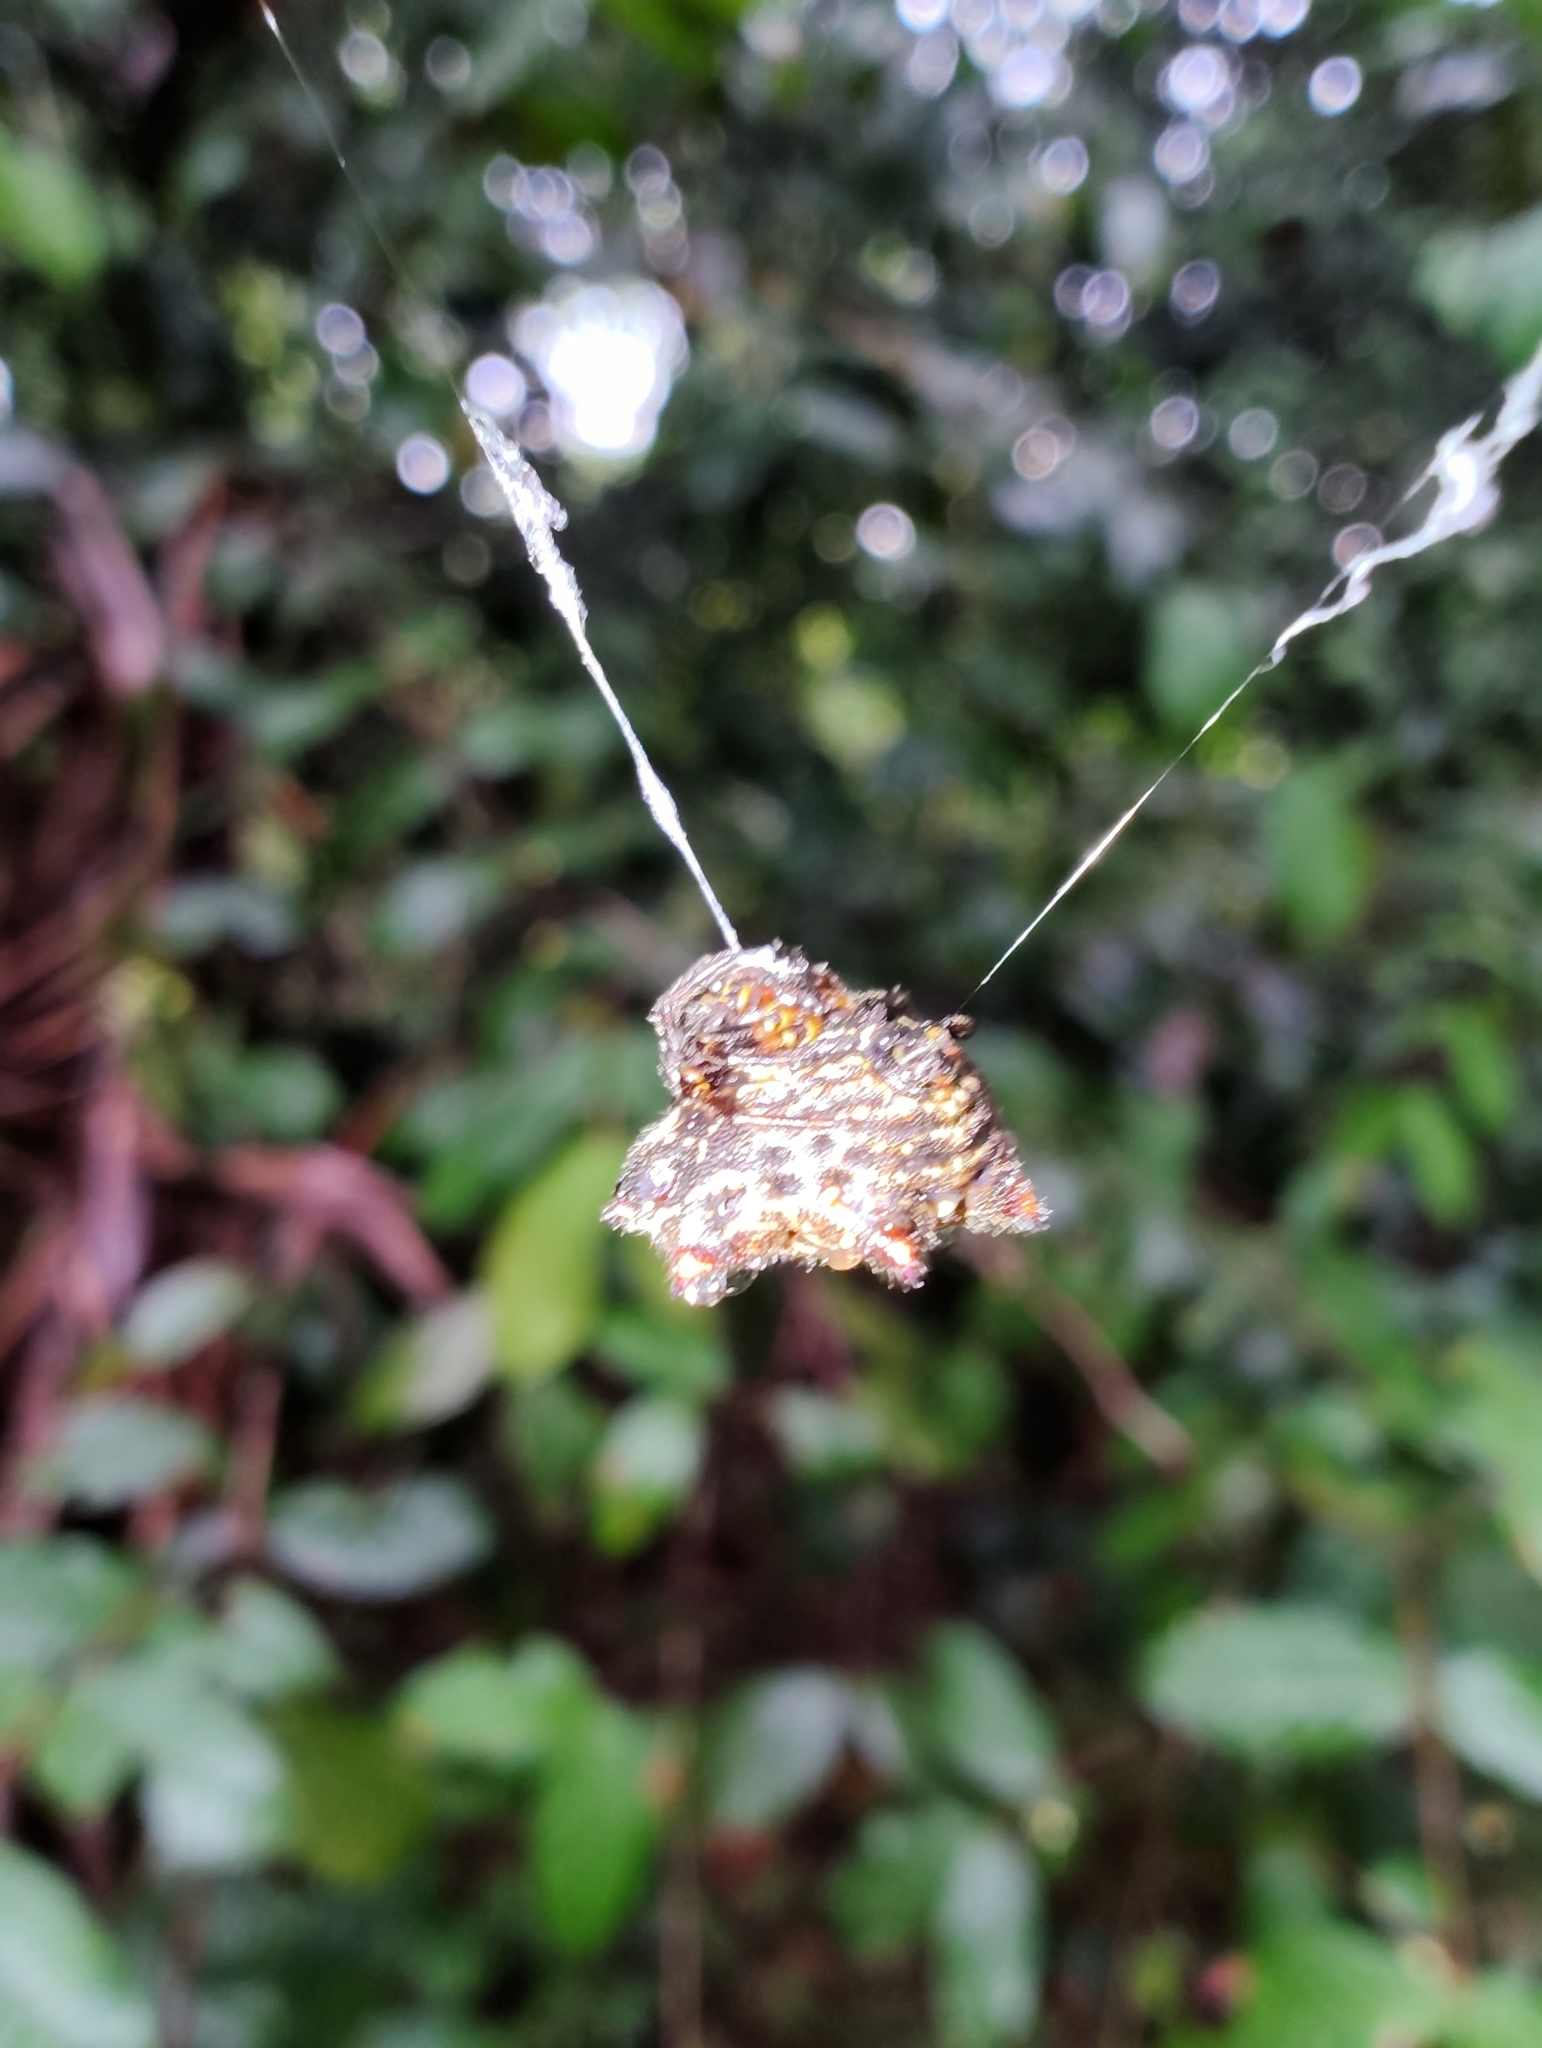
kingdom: Animalia
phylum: Arthropoda
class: Arachnida
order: Araneae
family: Araneidae
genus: Gasteracantha
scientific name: Gasteracantha cancriformis
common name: Orb weavers
